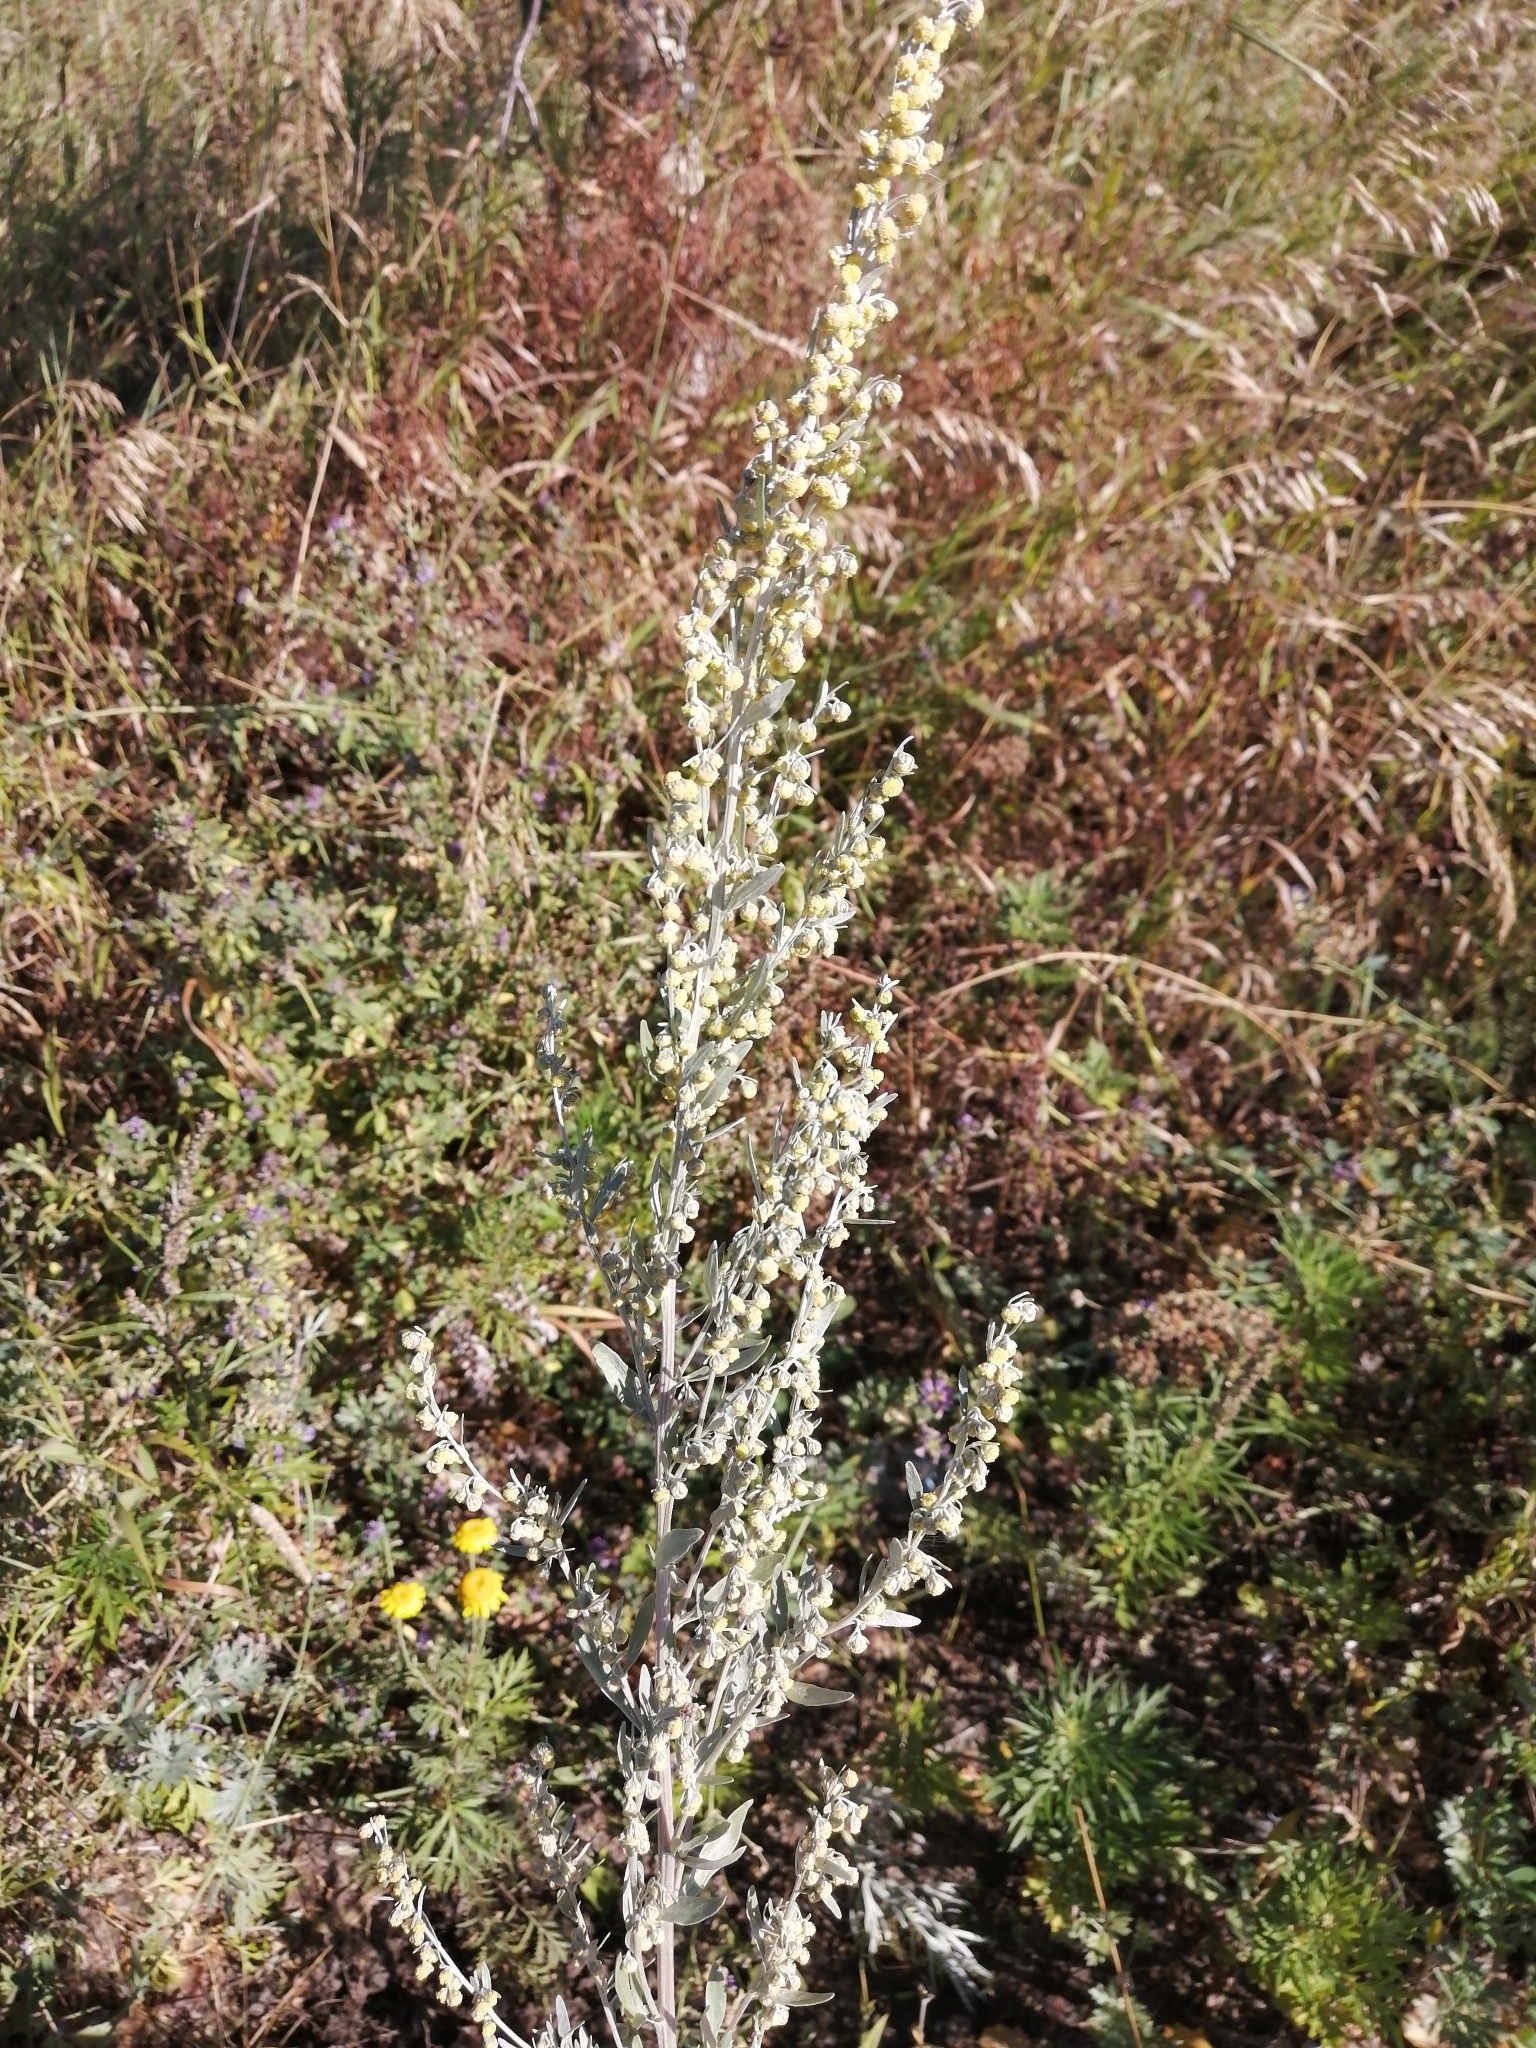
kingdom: Plantae
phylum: Tracheophyta
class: Magnoliopsida
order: Asterales
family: Asteraceae
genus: Artemisia
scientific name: Artemisia absinthium
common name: Wormwood
